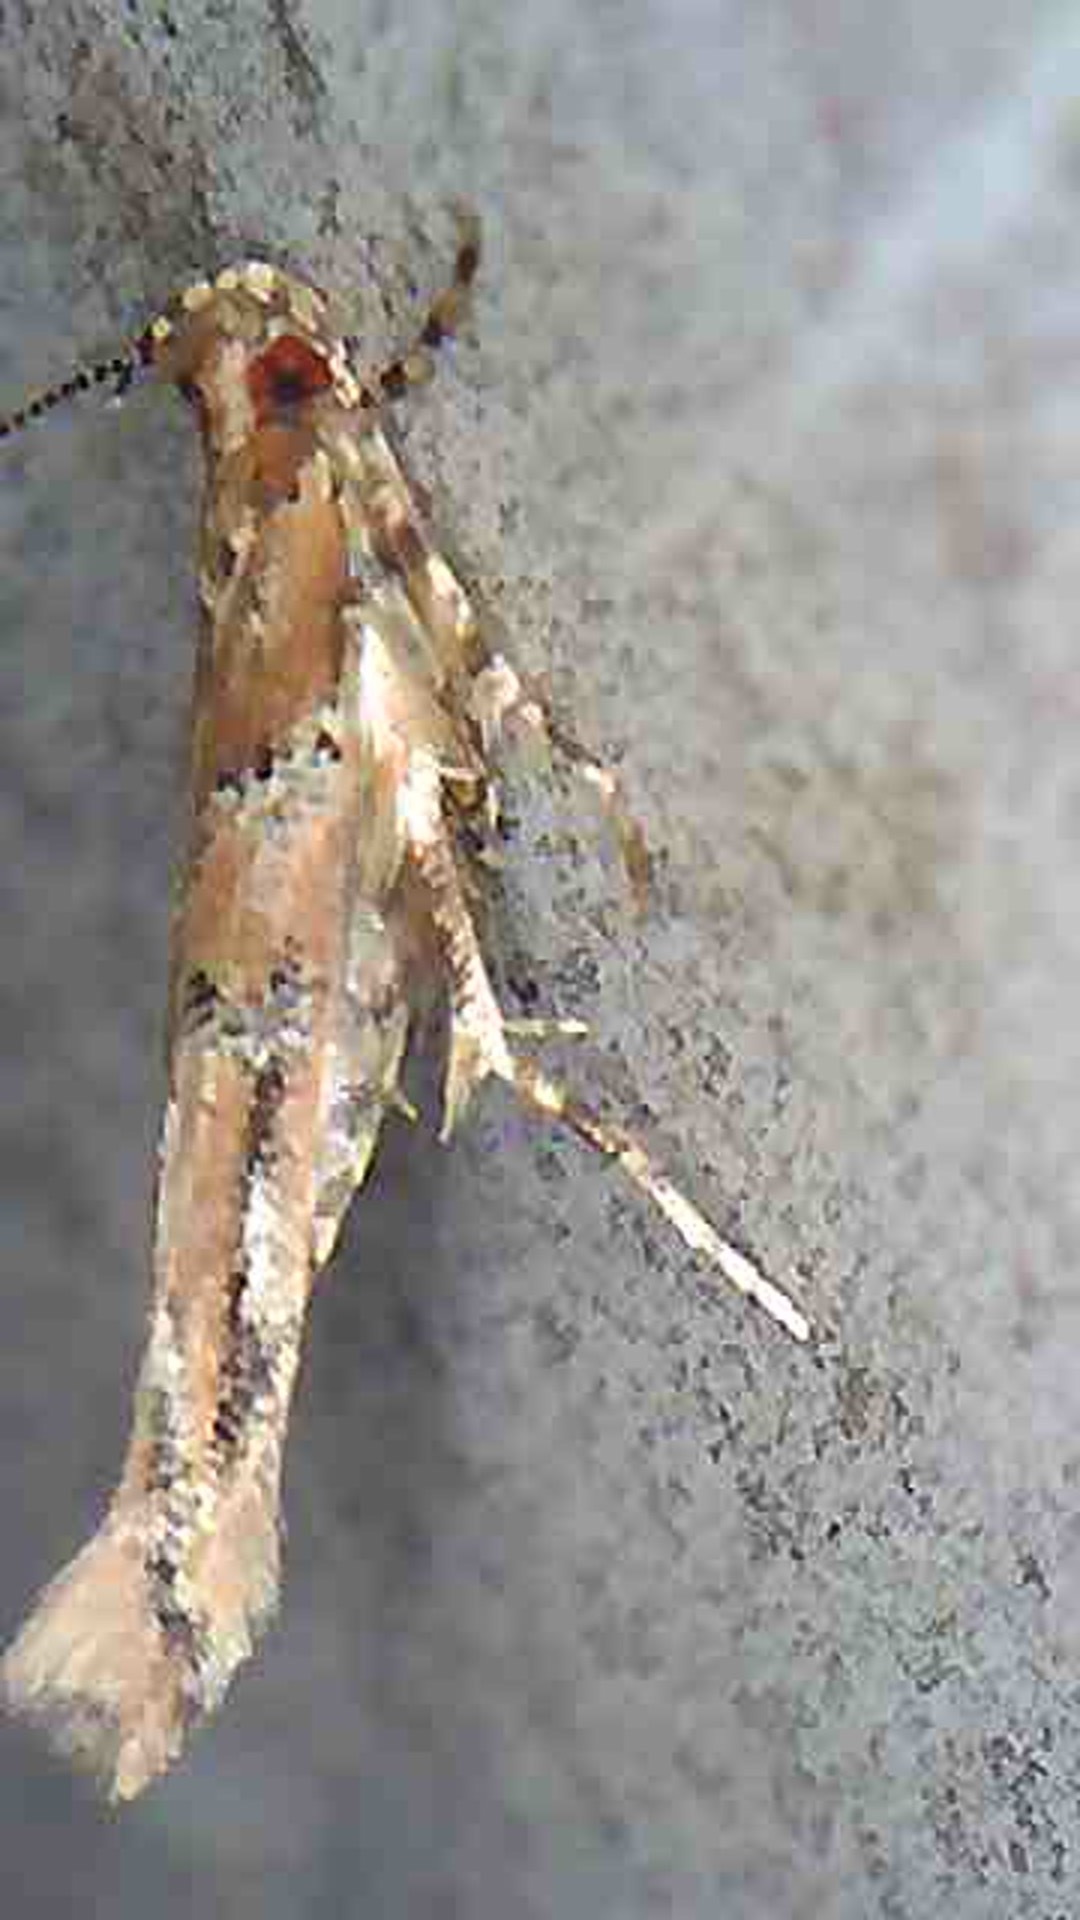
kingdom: Animalia
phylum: Arthropoda
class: Insecta
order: Lepidoptera
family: Cosmopterigidae
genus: Pyroderces
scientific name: Pyroderces aellotricha
